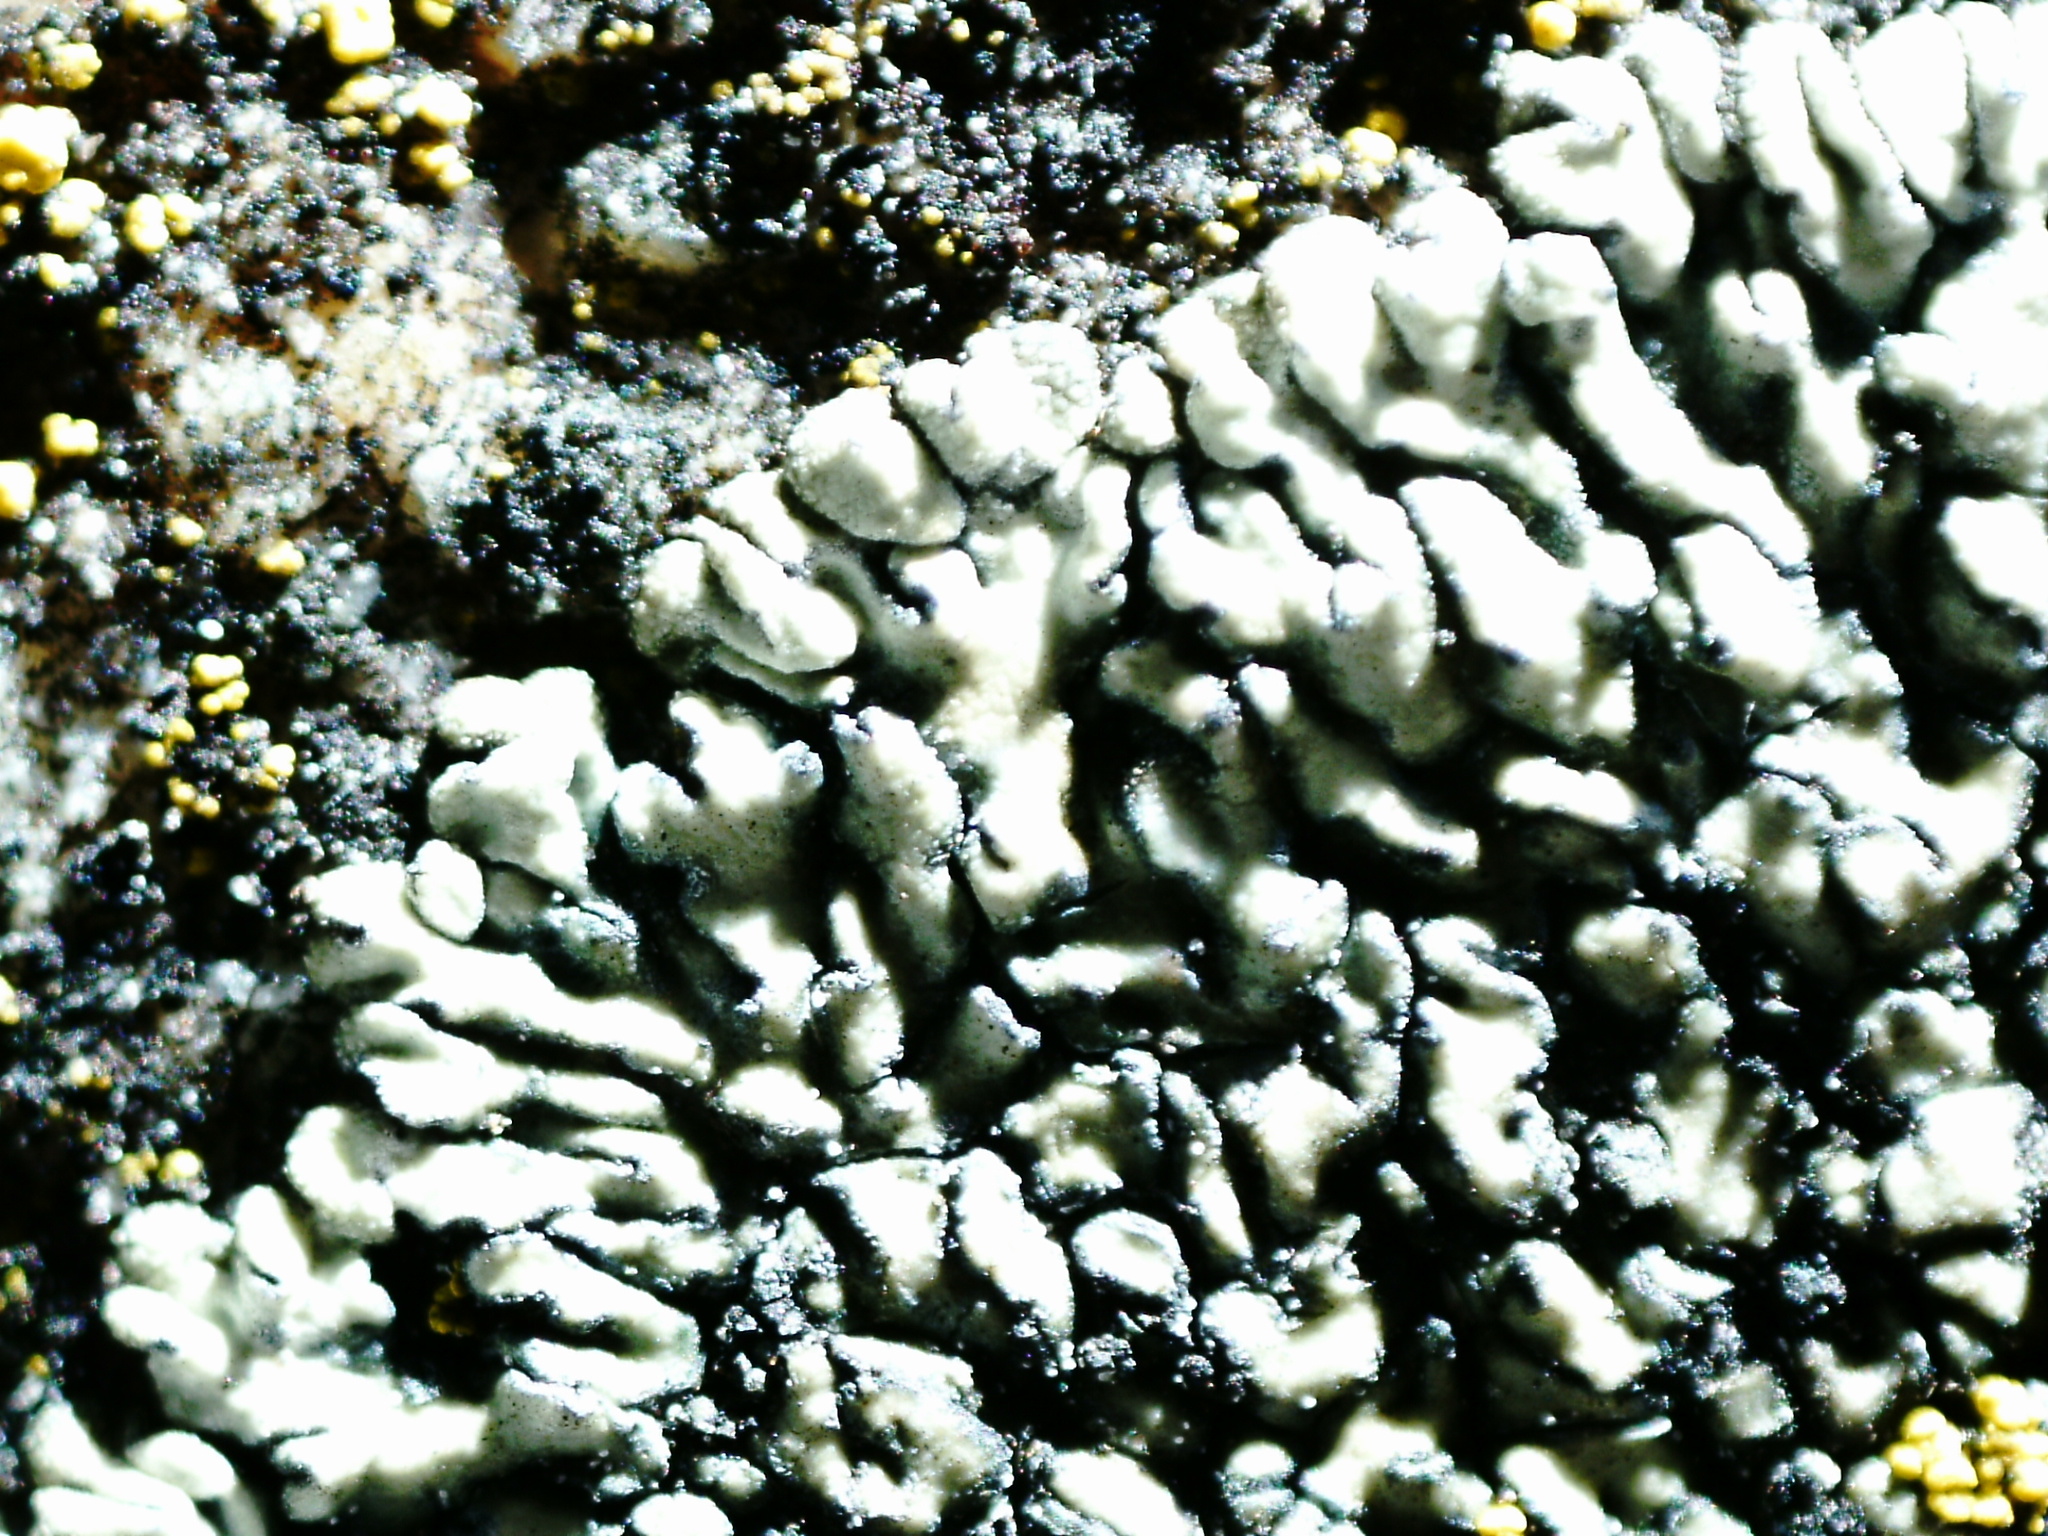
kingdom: Fungi
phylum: Ascomycota
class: Lecanoromycetes
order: Lecanorales
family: Lecanoraceae
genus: Protoparmeliopsis
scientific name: Protoparmeliopsis muralis
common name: Stonewall rim lichen
